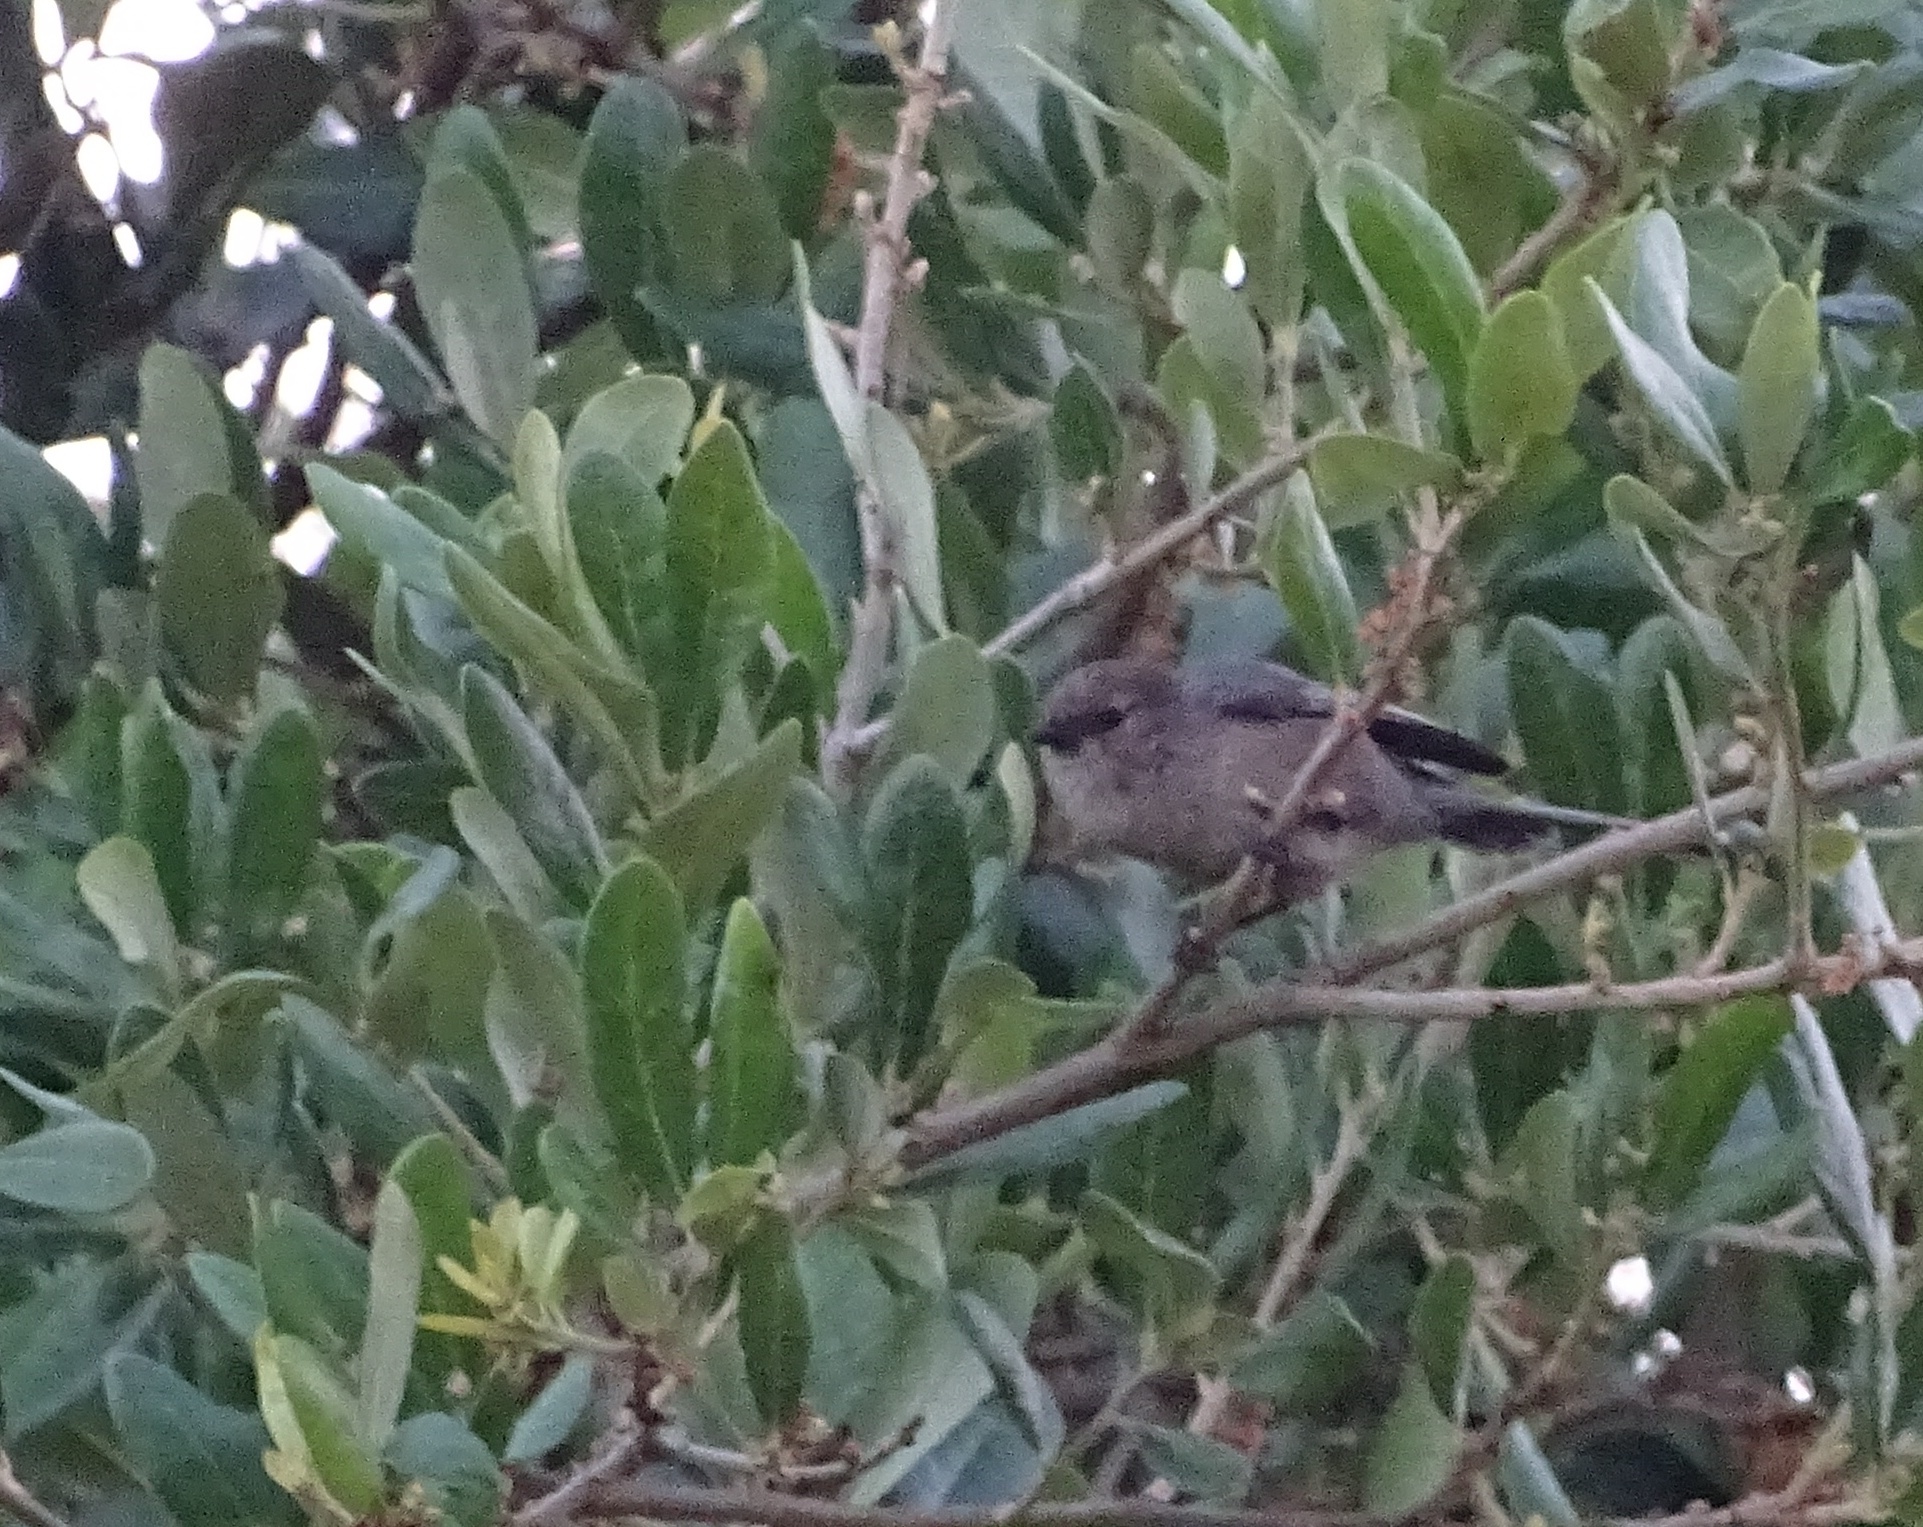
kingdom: Animalia
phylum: Chordata
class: Aves
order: Passeriformes
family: Aegithalidae
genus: Psaltriparus
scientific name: Psaltriparus minimus
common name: American bushtit
